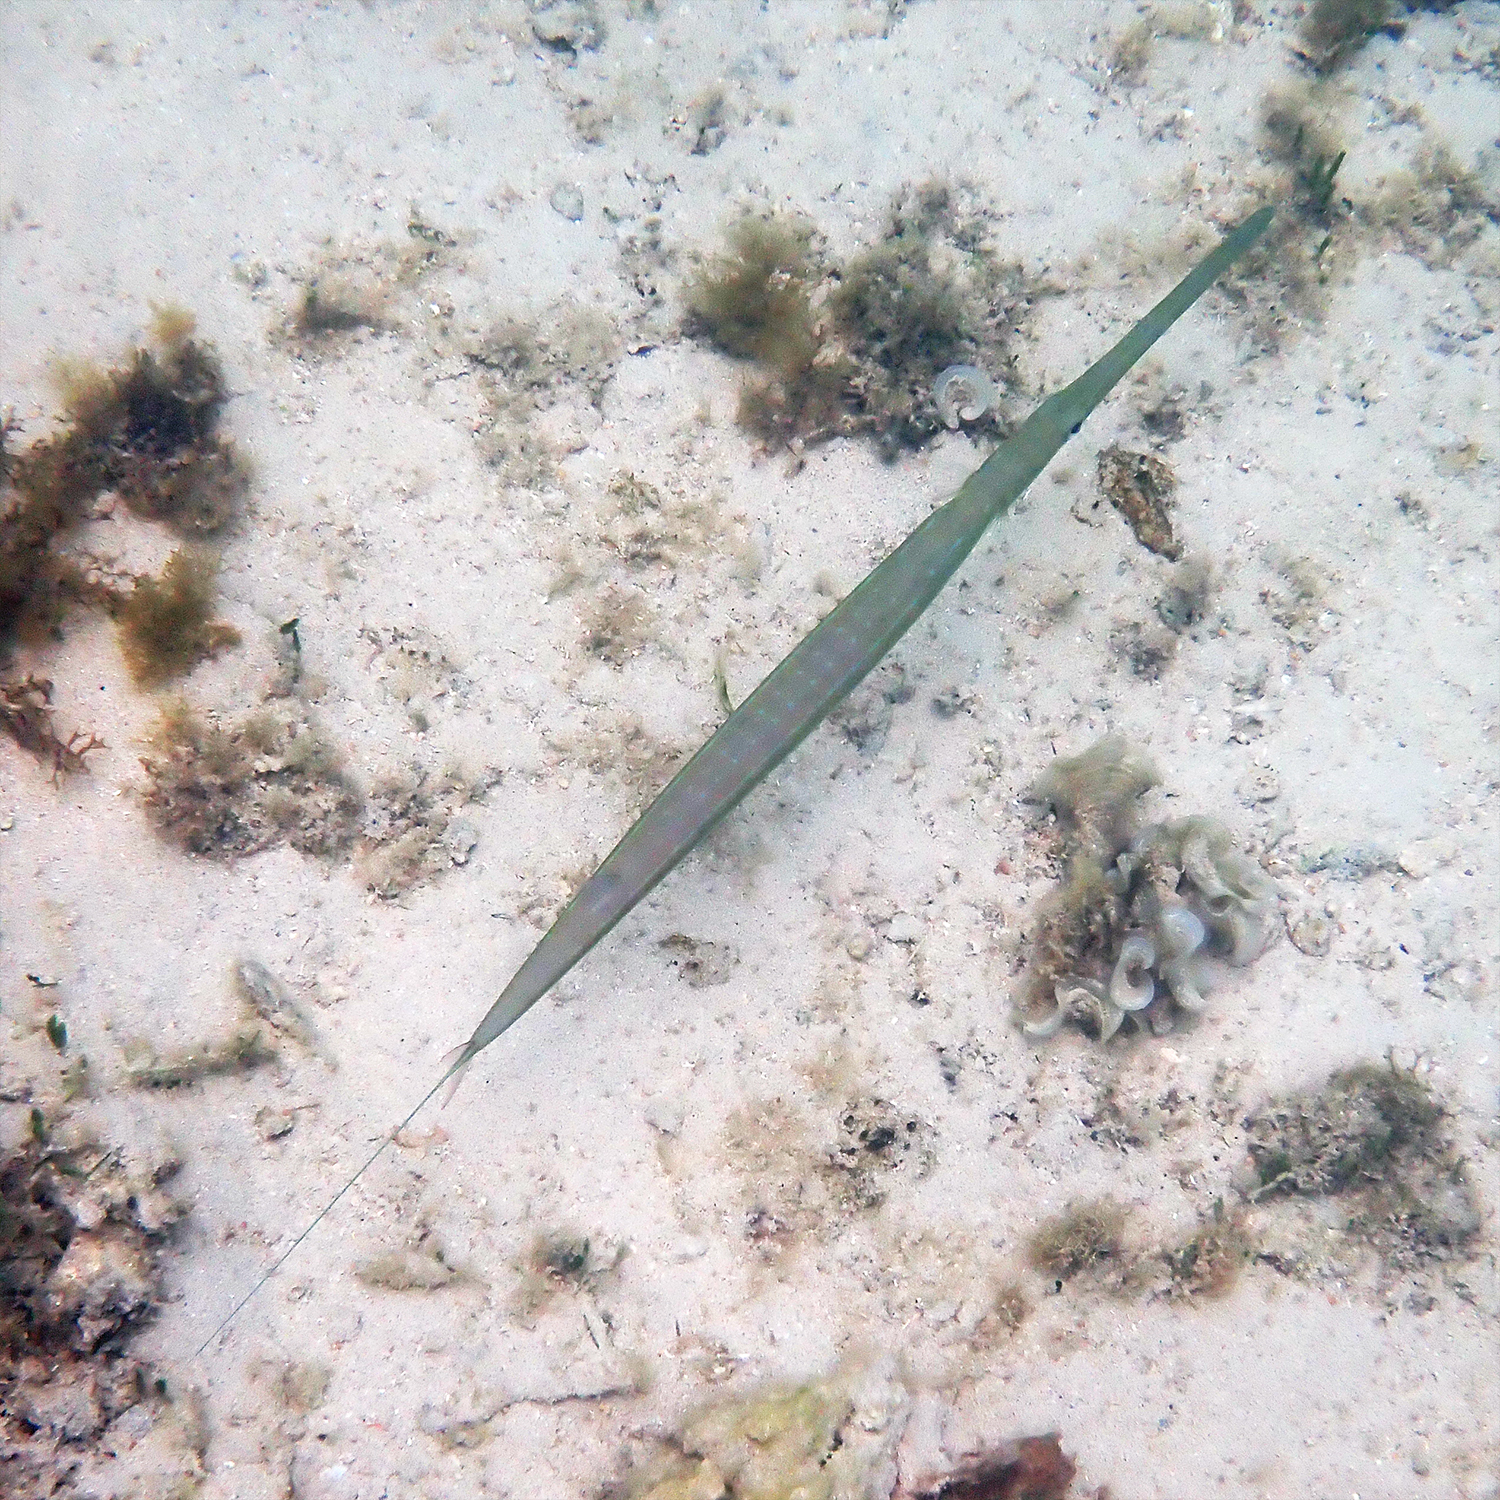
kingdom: Animalia
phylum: Chordata
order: Syngnathiformes
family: Fistulariidae
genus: Fistularia
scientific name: Fistularia commersonii
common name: Bluespotted cornetfish
